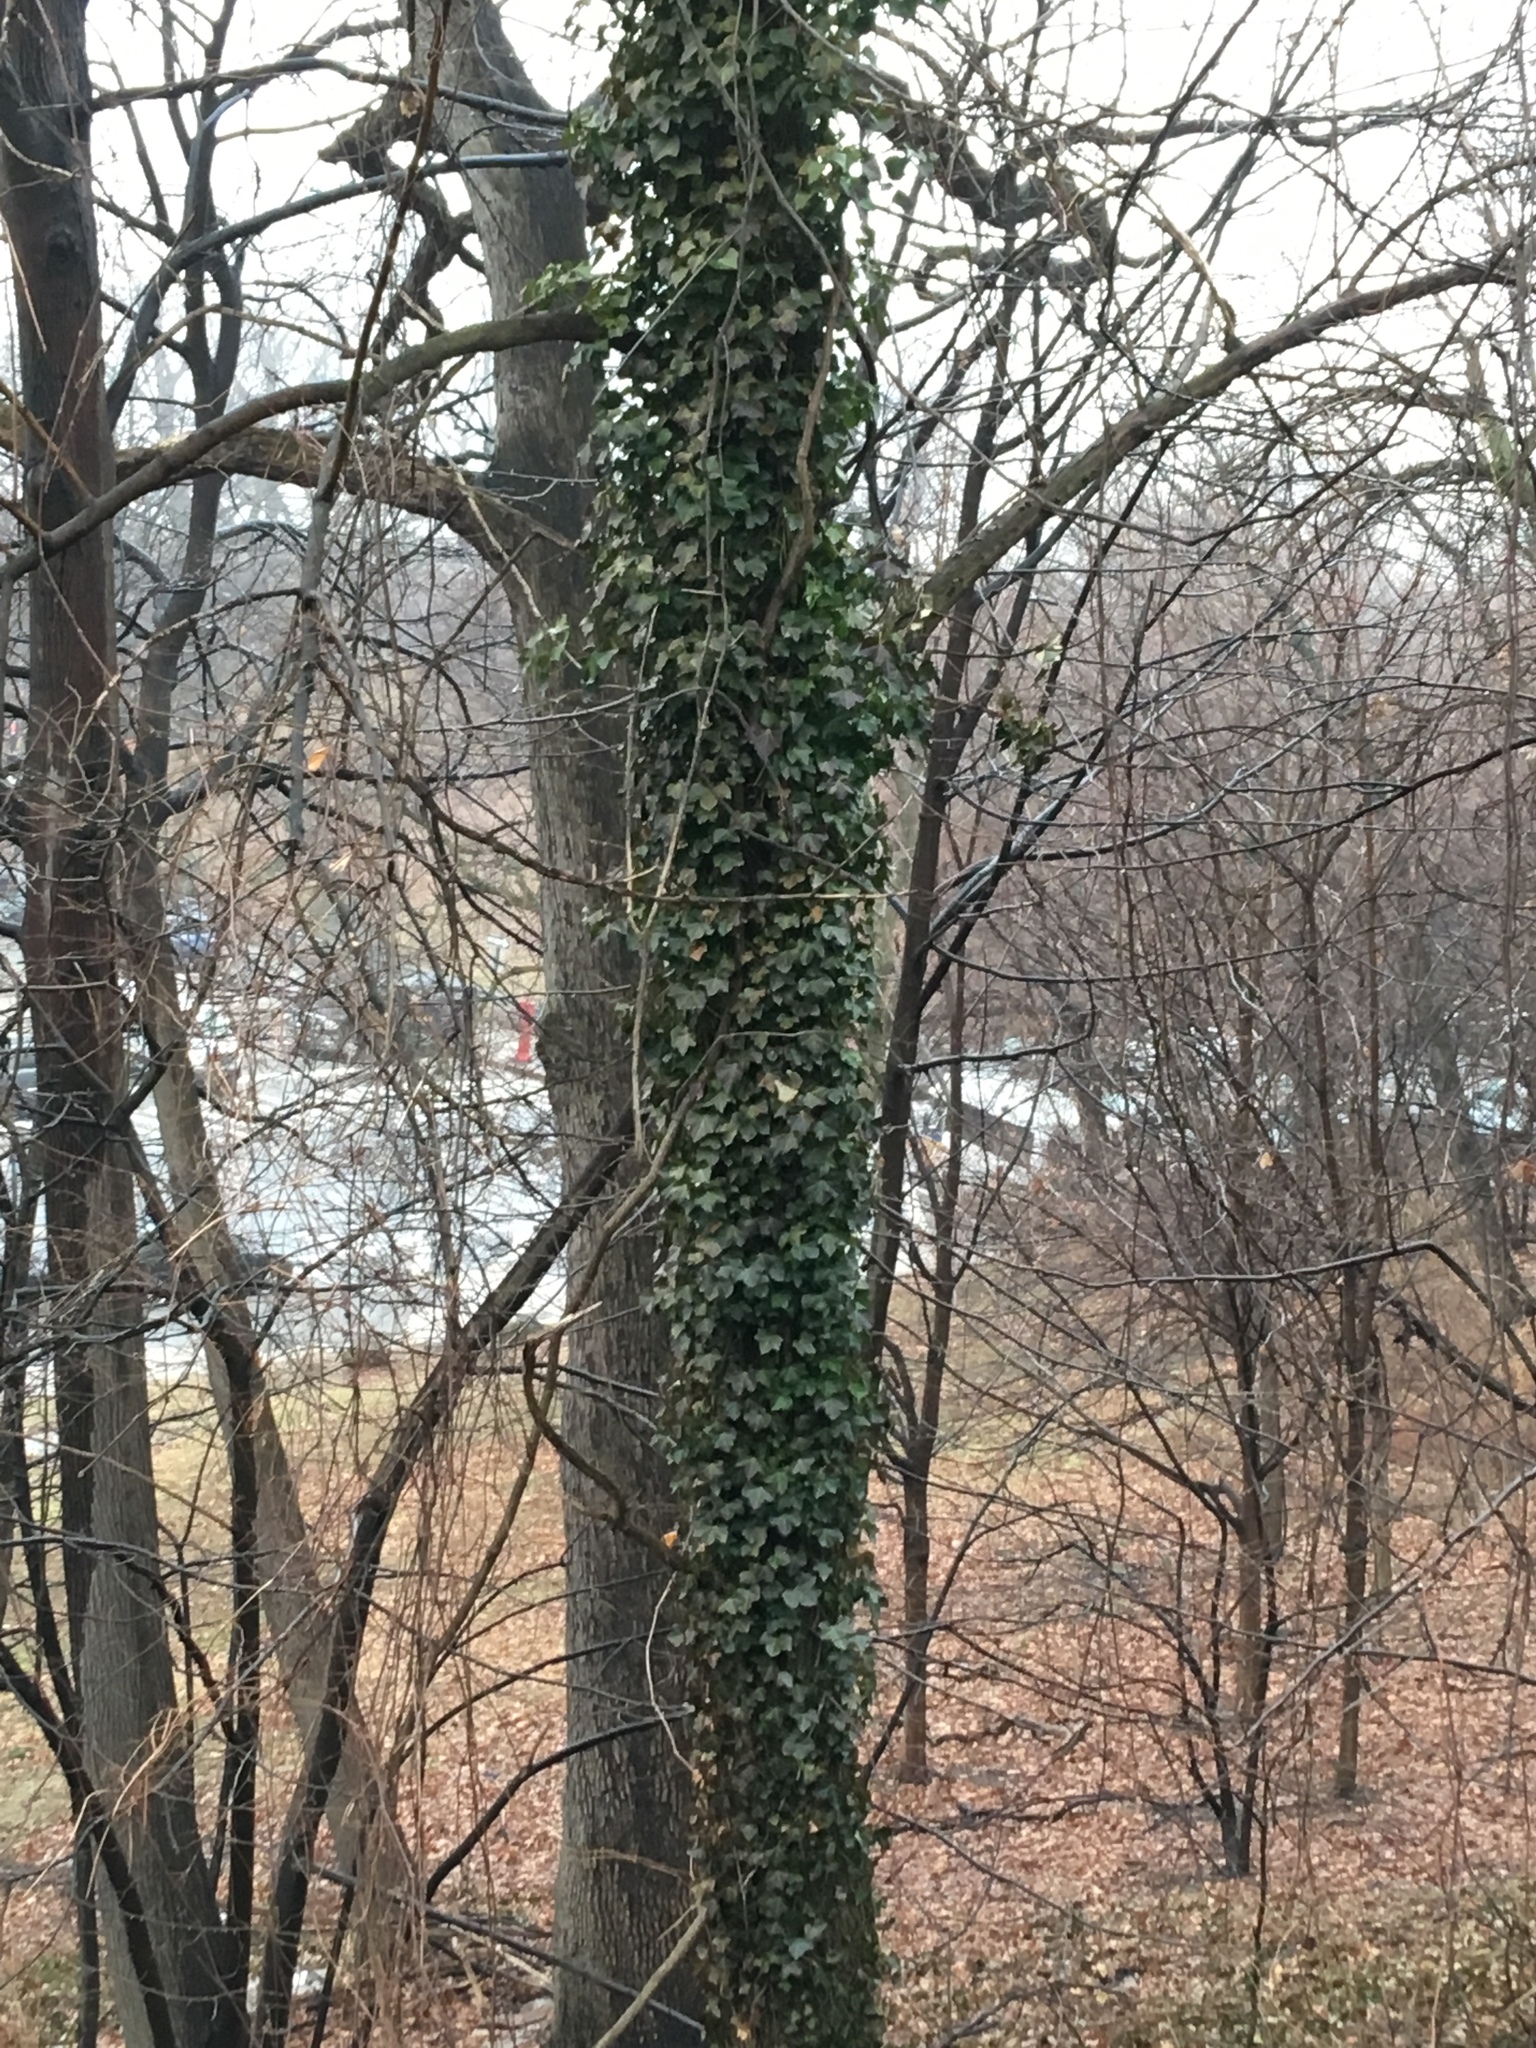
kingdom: Plantae
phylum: Tracheophyta
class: Magnoliopsida
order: Apiales
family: Araliaceae
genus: Hedera
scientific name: Hedera helix
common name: Ivy
